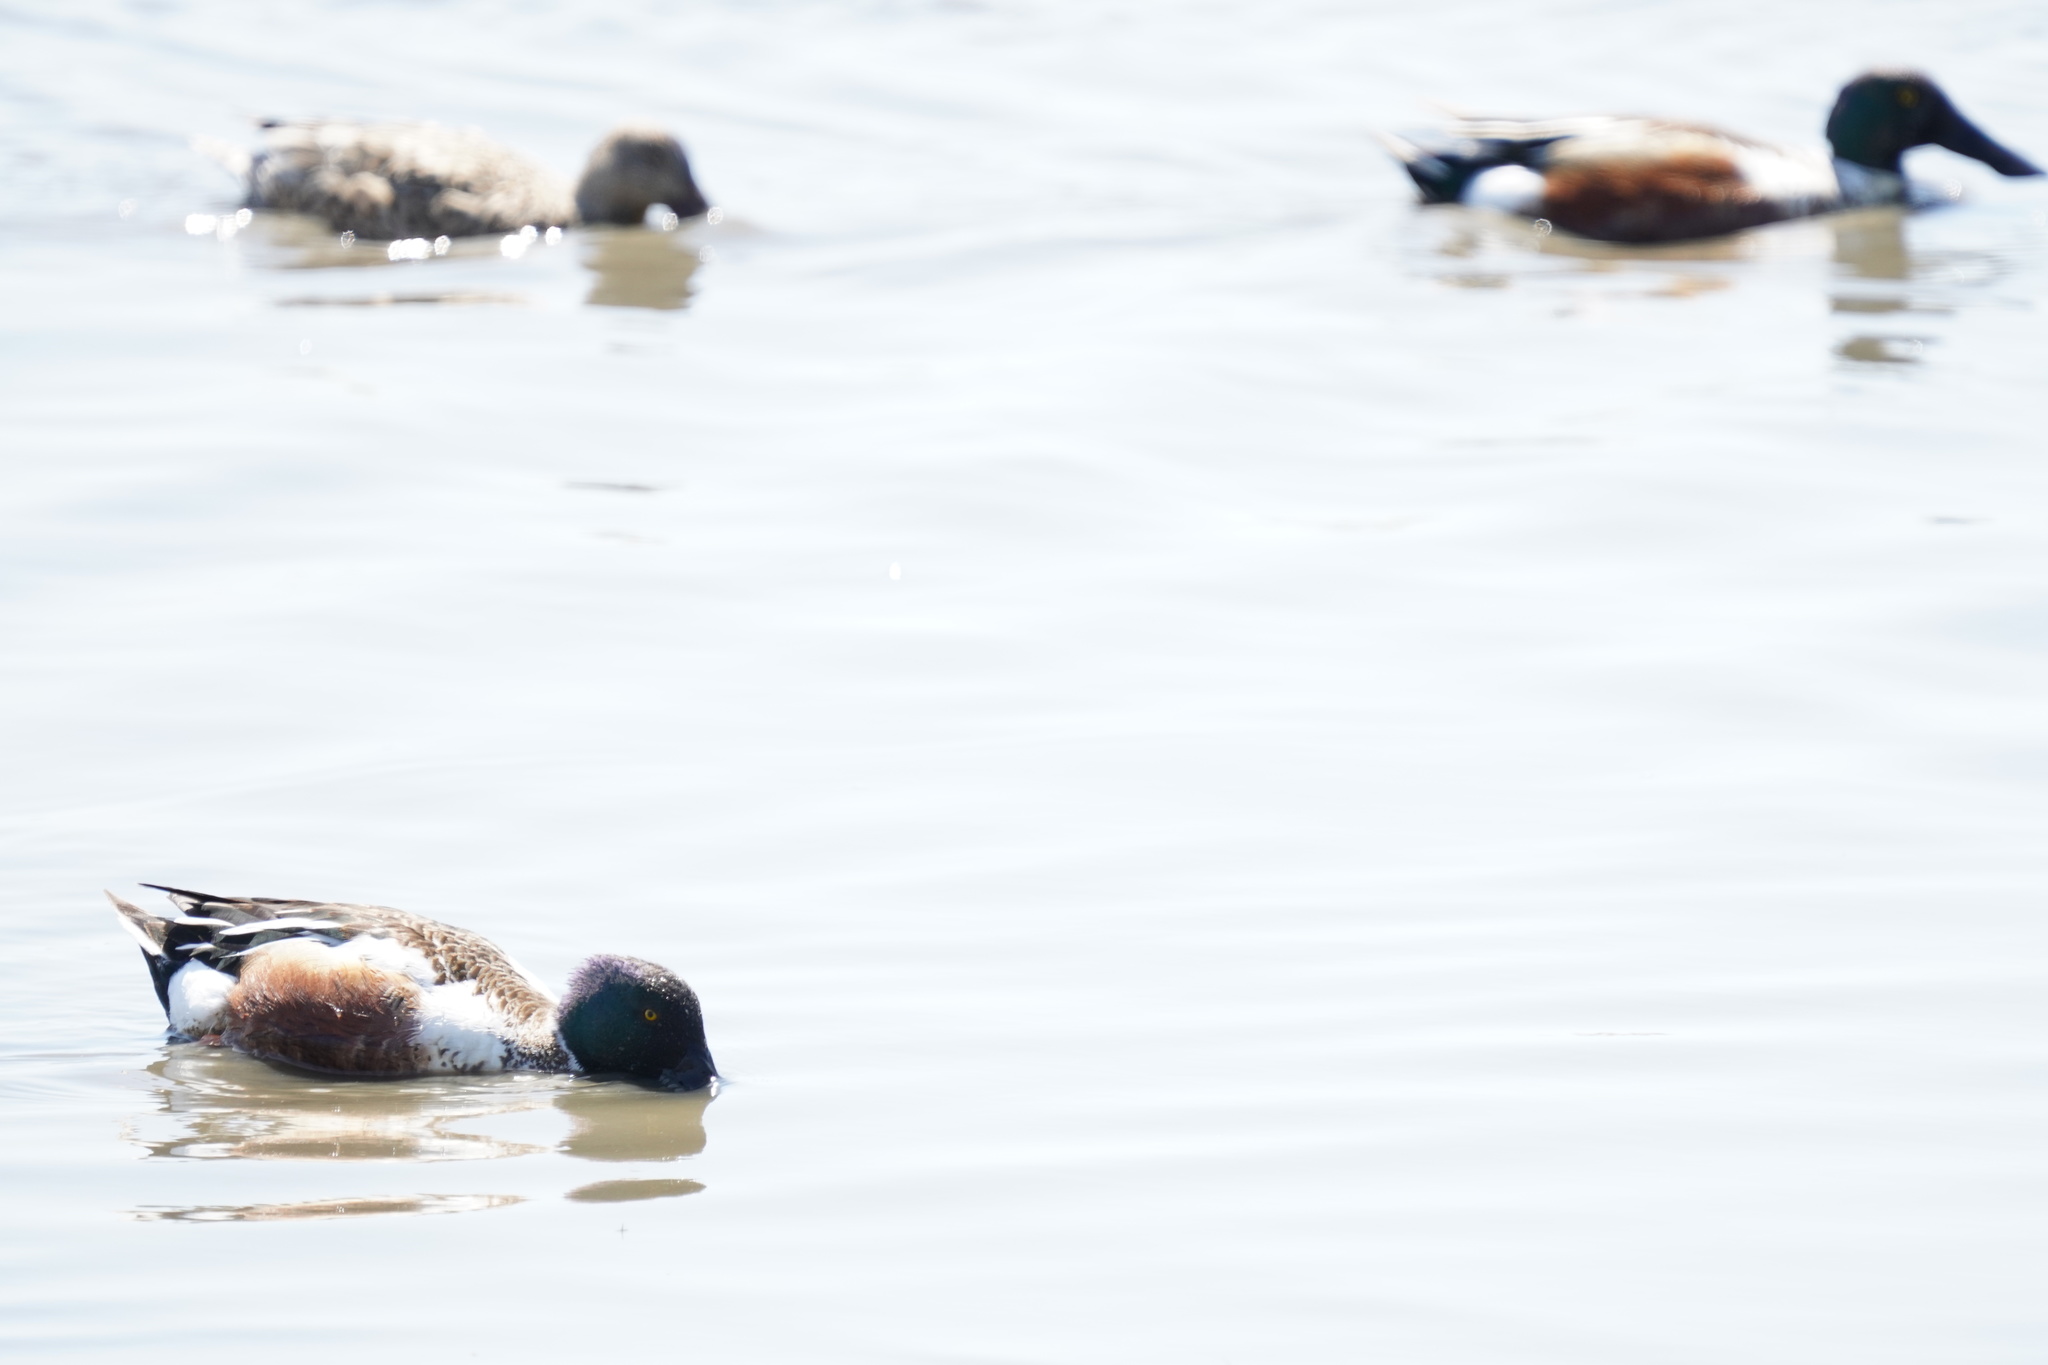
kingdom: Animalia
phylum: Chordata
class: Aves
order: Anseriformes
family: Anatidae
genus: Spatula
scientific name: Spatula clypeata
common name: Northern shoveler
